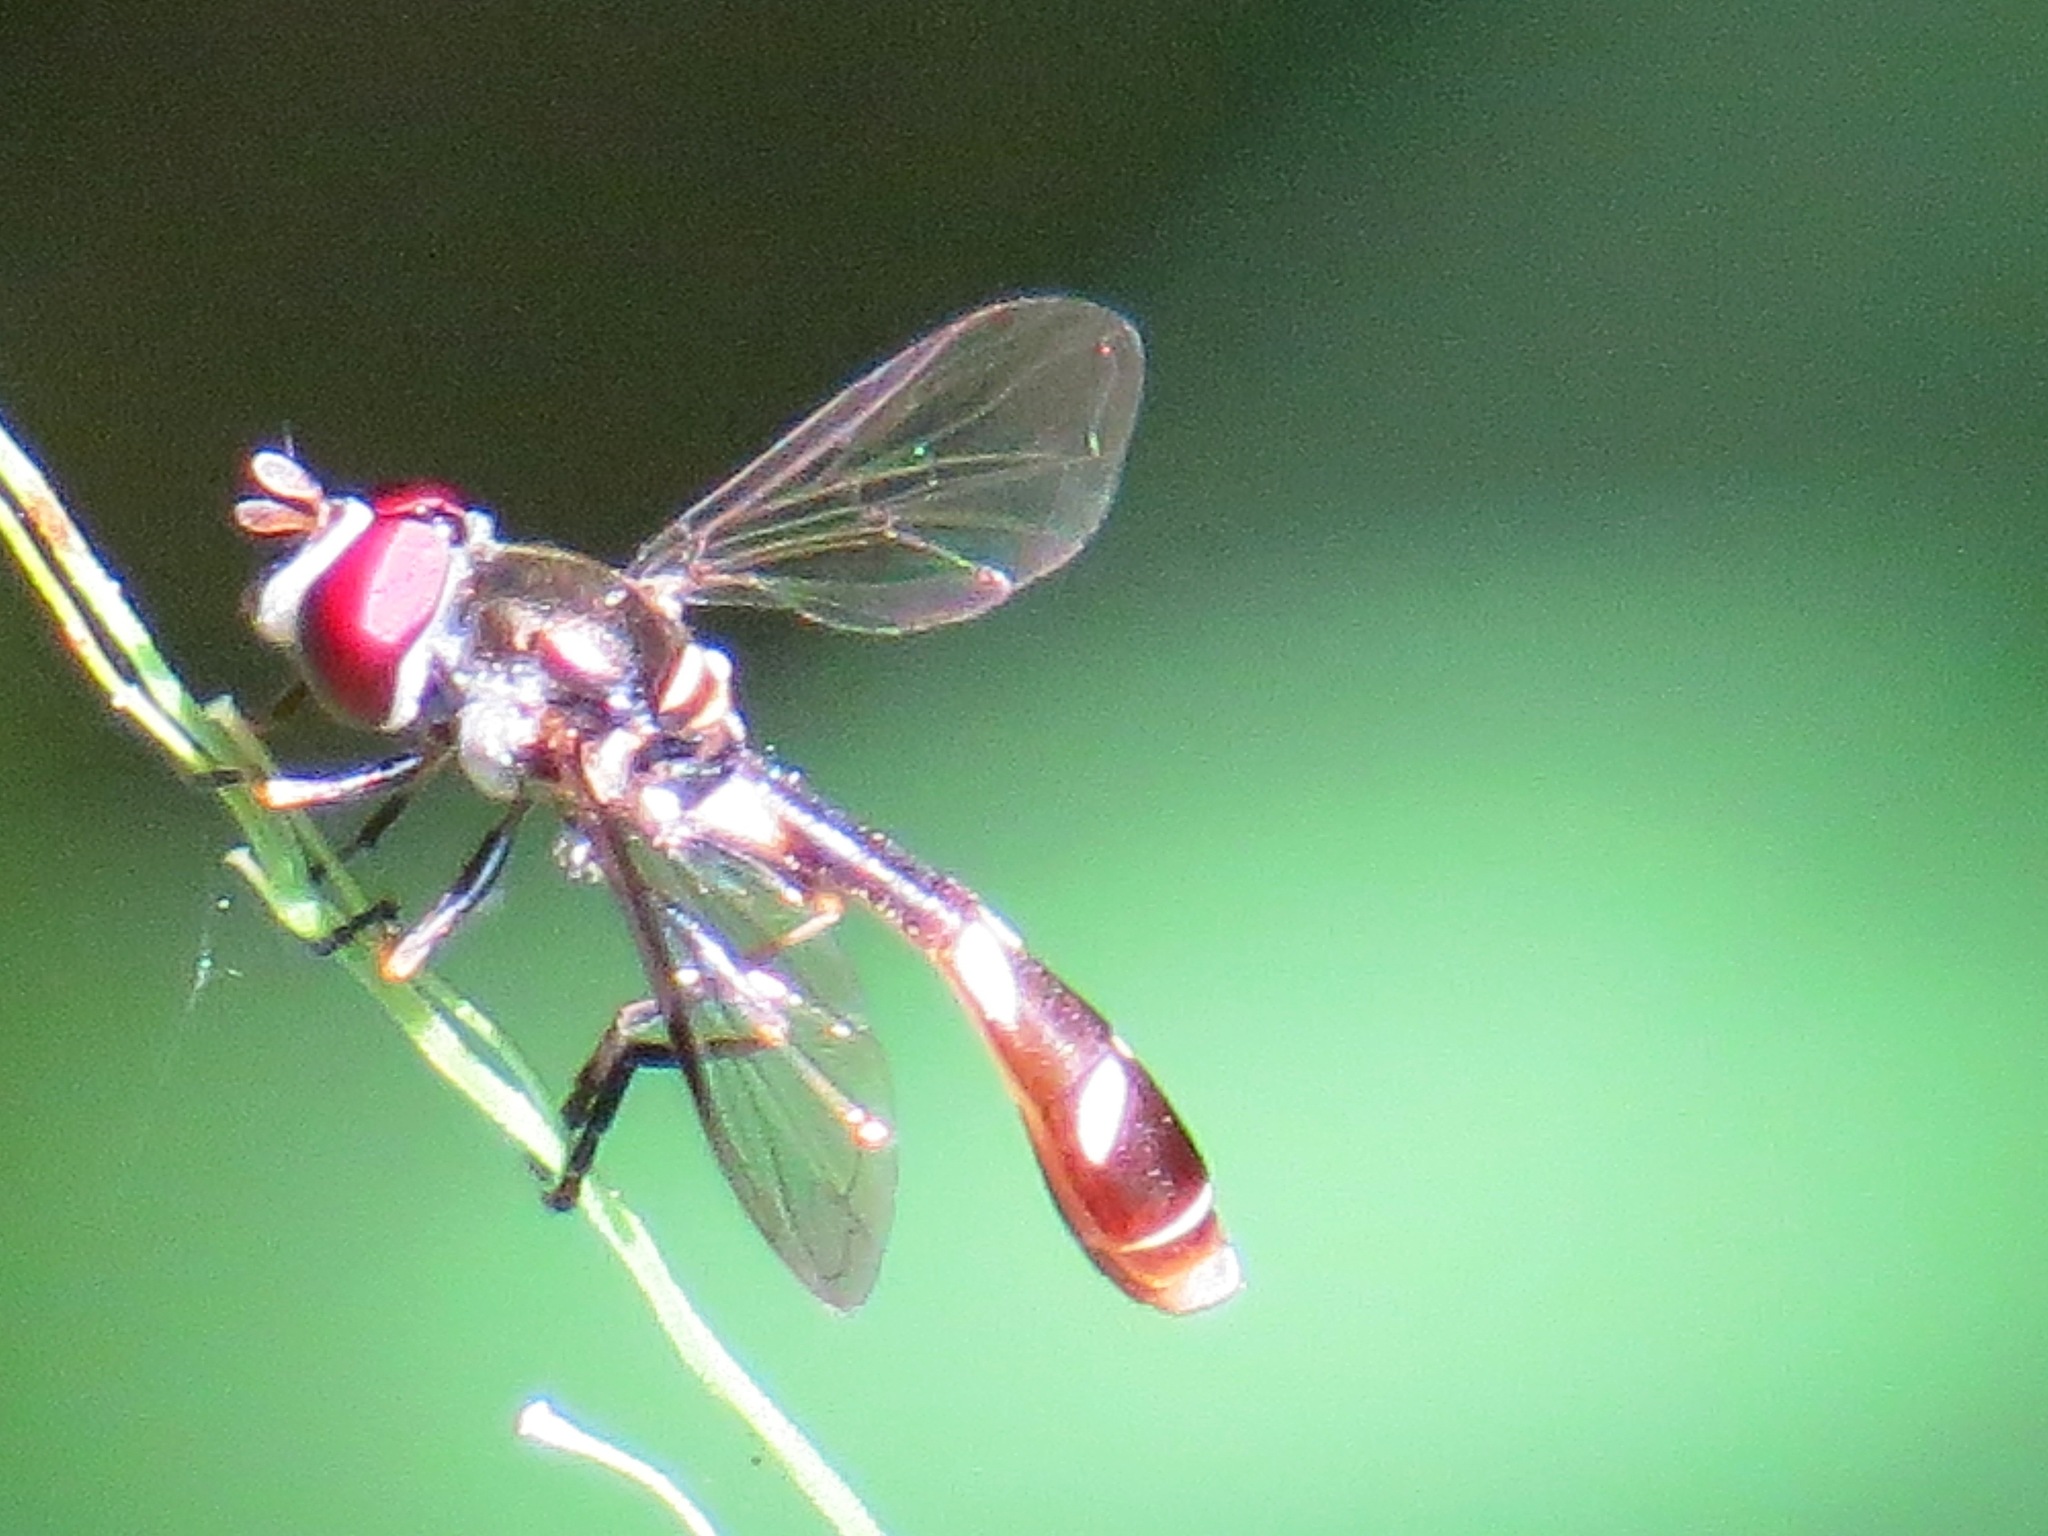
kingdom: Animalia
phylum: Arthropoda
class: Insecta
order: Diptera
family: Syrphidae
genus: Dioprosopa
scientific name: Dioprosopa clavatus
